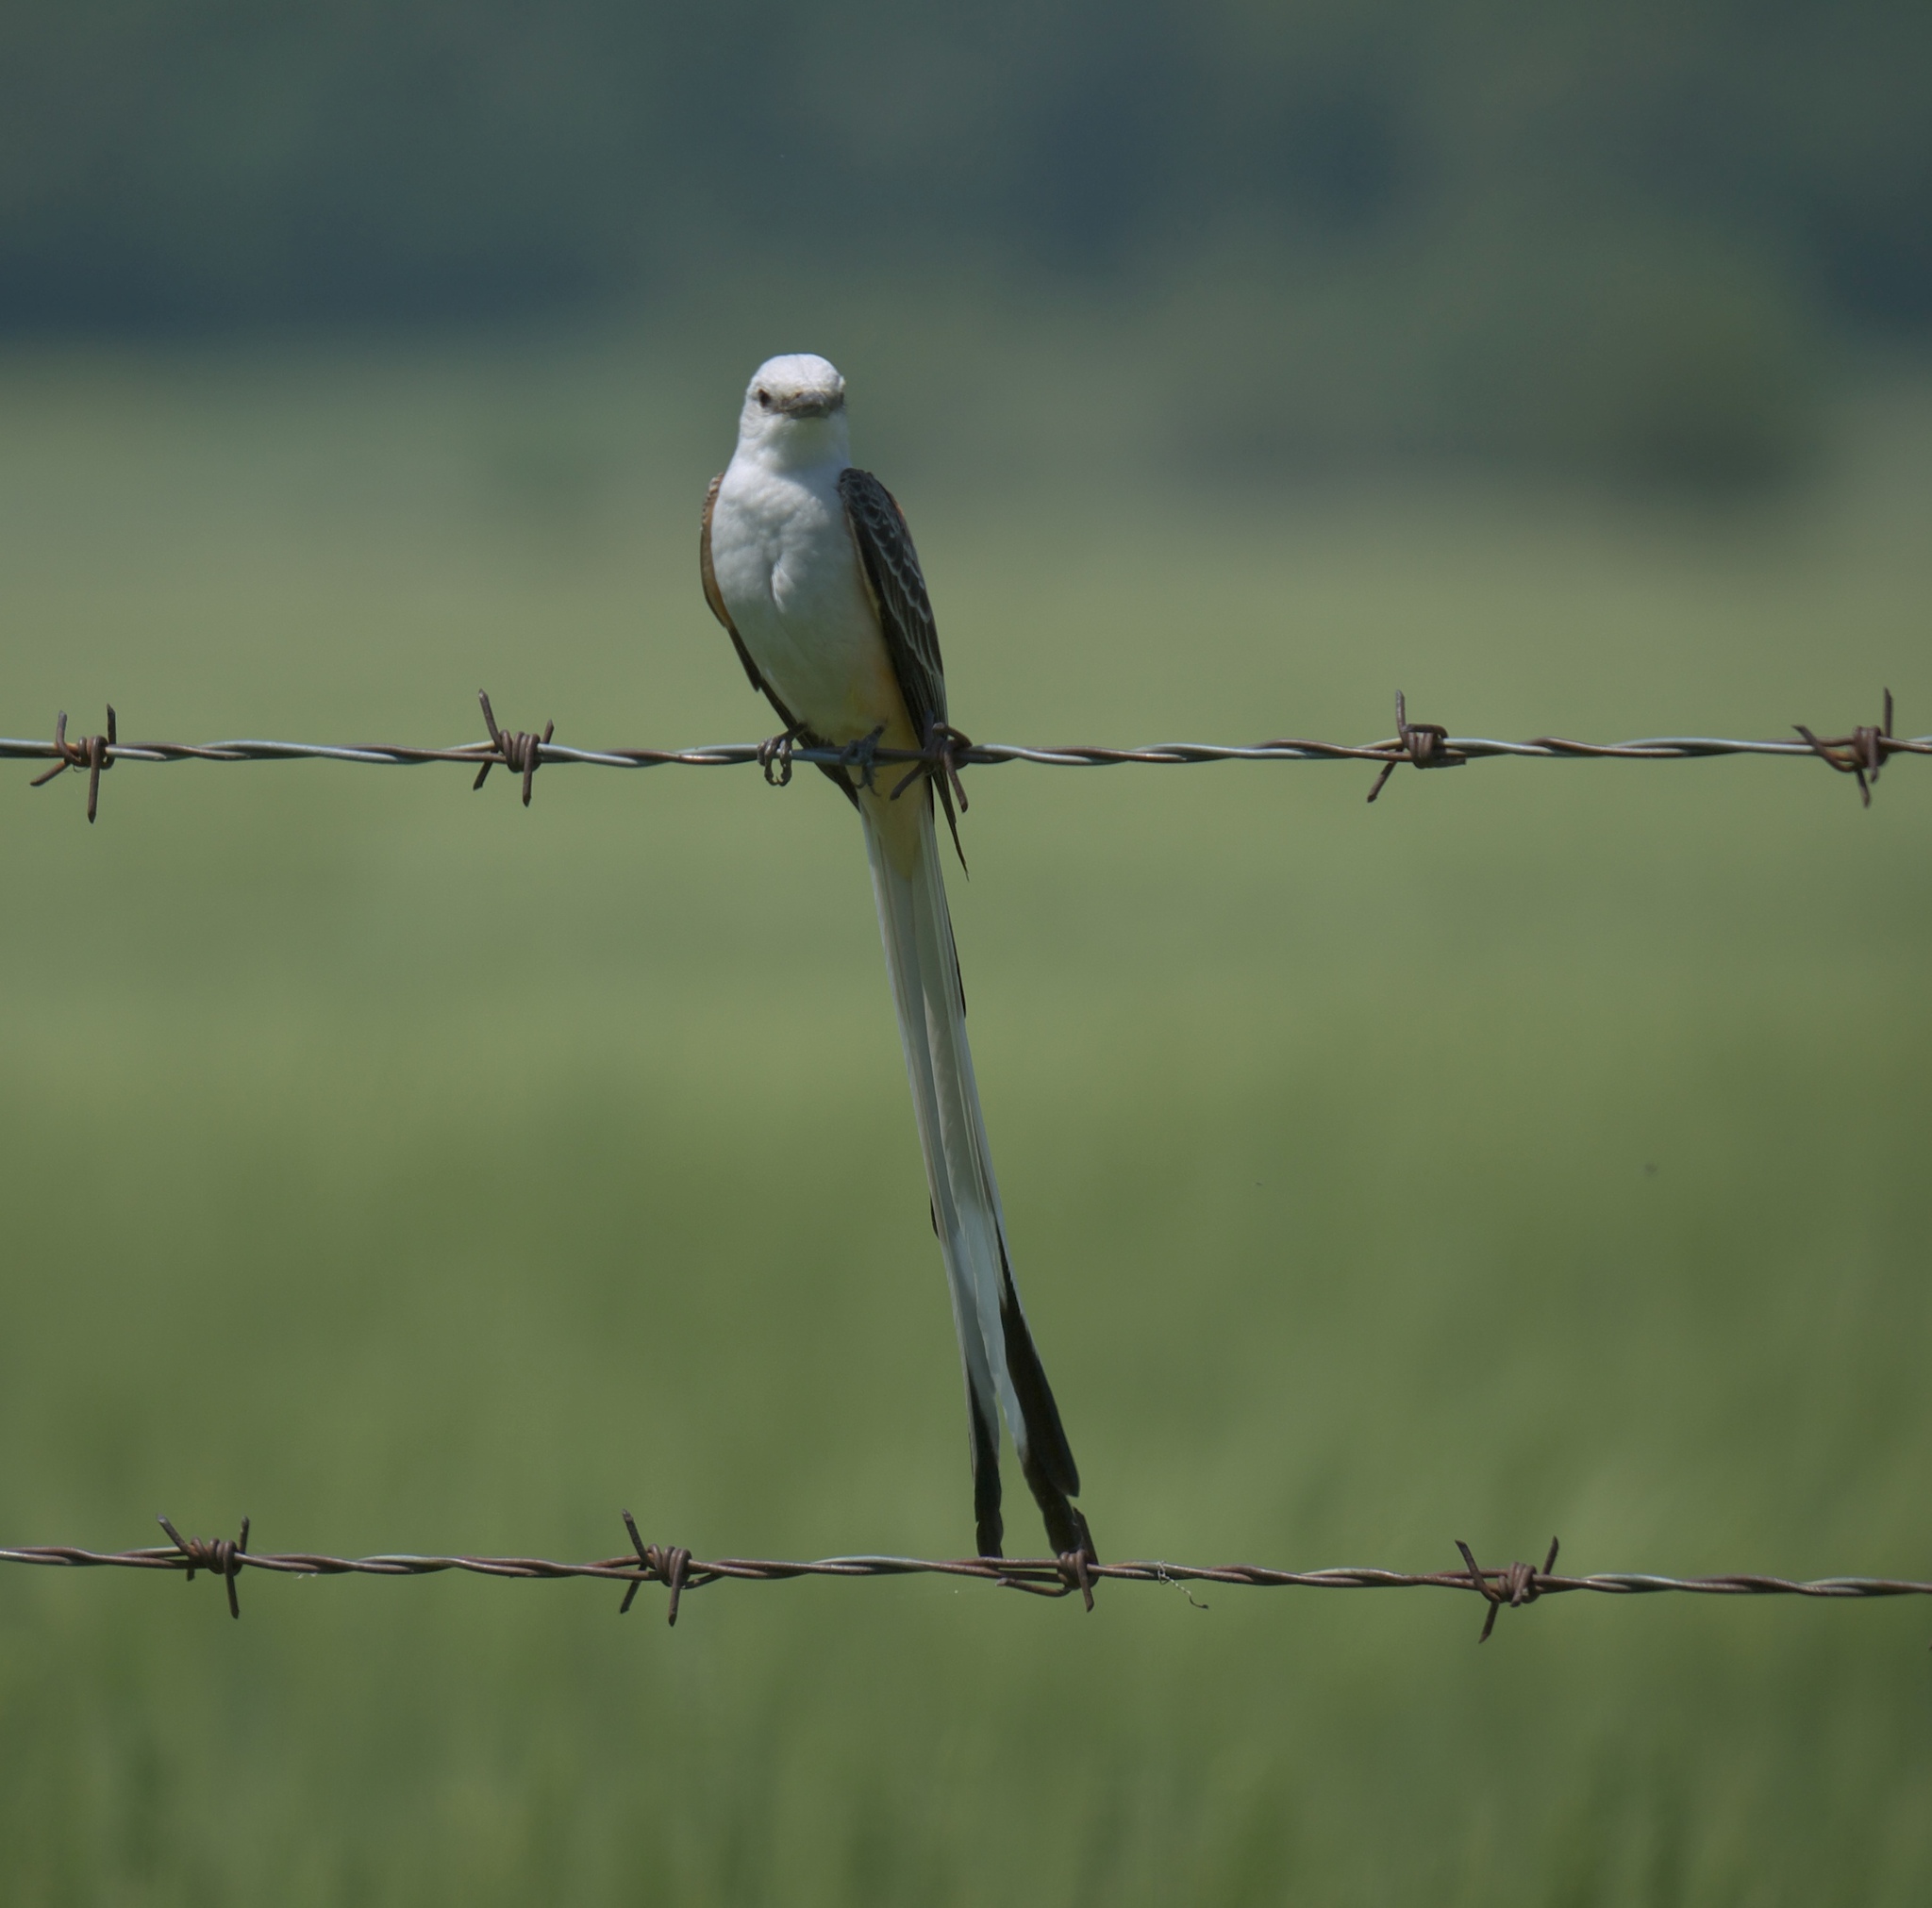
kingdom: Animalia
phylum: Chordata
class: Aves
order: Passeriformes
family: Tyrannidae
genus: Tyrannus
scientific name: Tyrannus forficatus
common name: Scissor-tailed flycatcher
